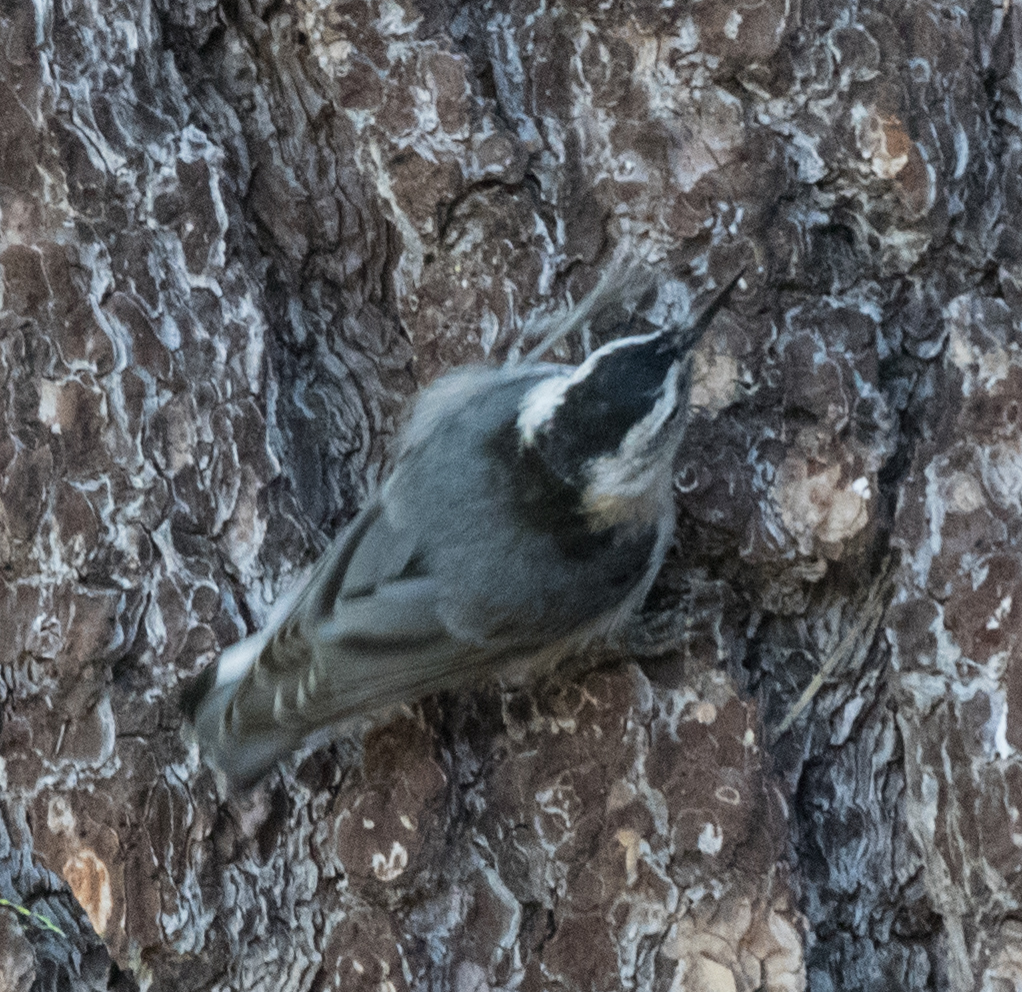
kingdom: Animalia
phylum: Chordata
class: Aves
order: Passeriformes
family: Sittidae
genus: Sitta
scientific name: Sitta carolinensis
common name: White-breasted nuthatch
